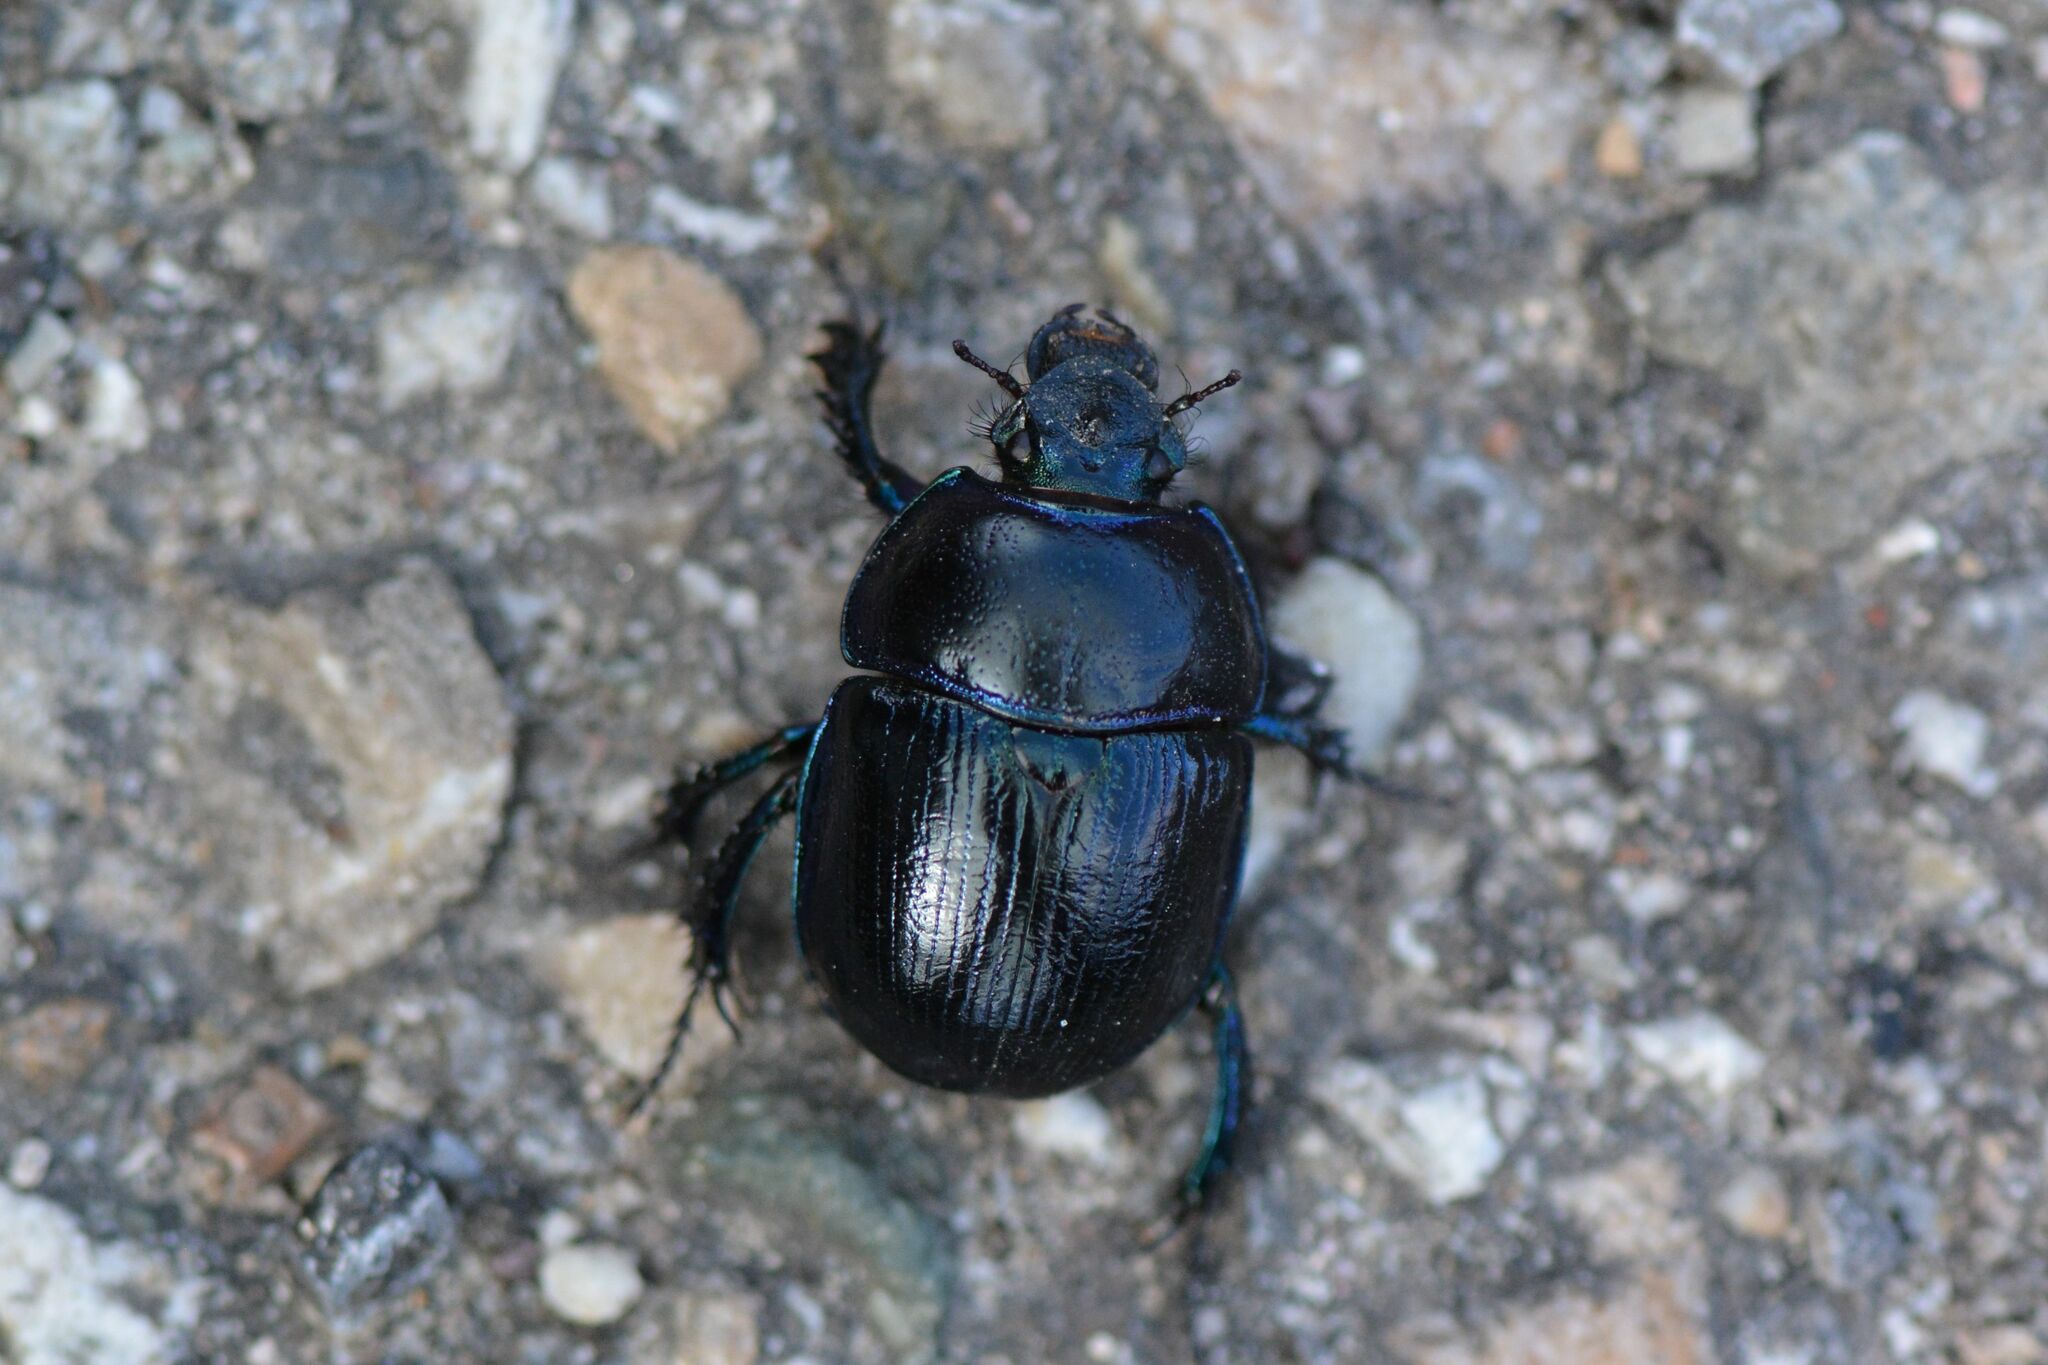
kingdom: Animalia
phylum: Arthropoda
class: Insecta
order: Coleoptera
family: Geotrupidae
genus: Anoplotrupes
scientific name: Anoplotrupes stercorosus
